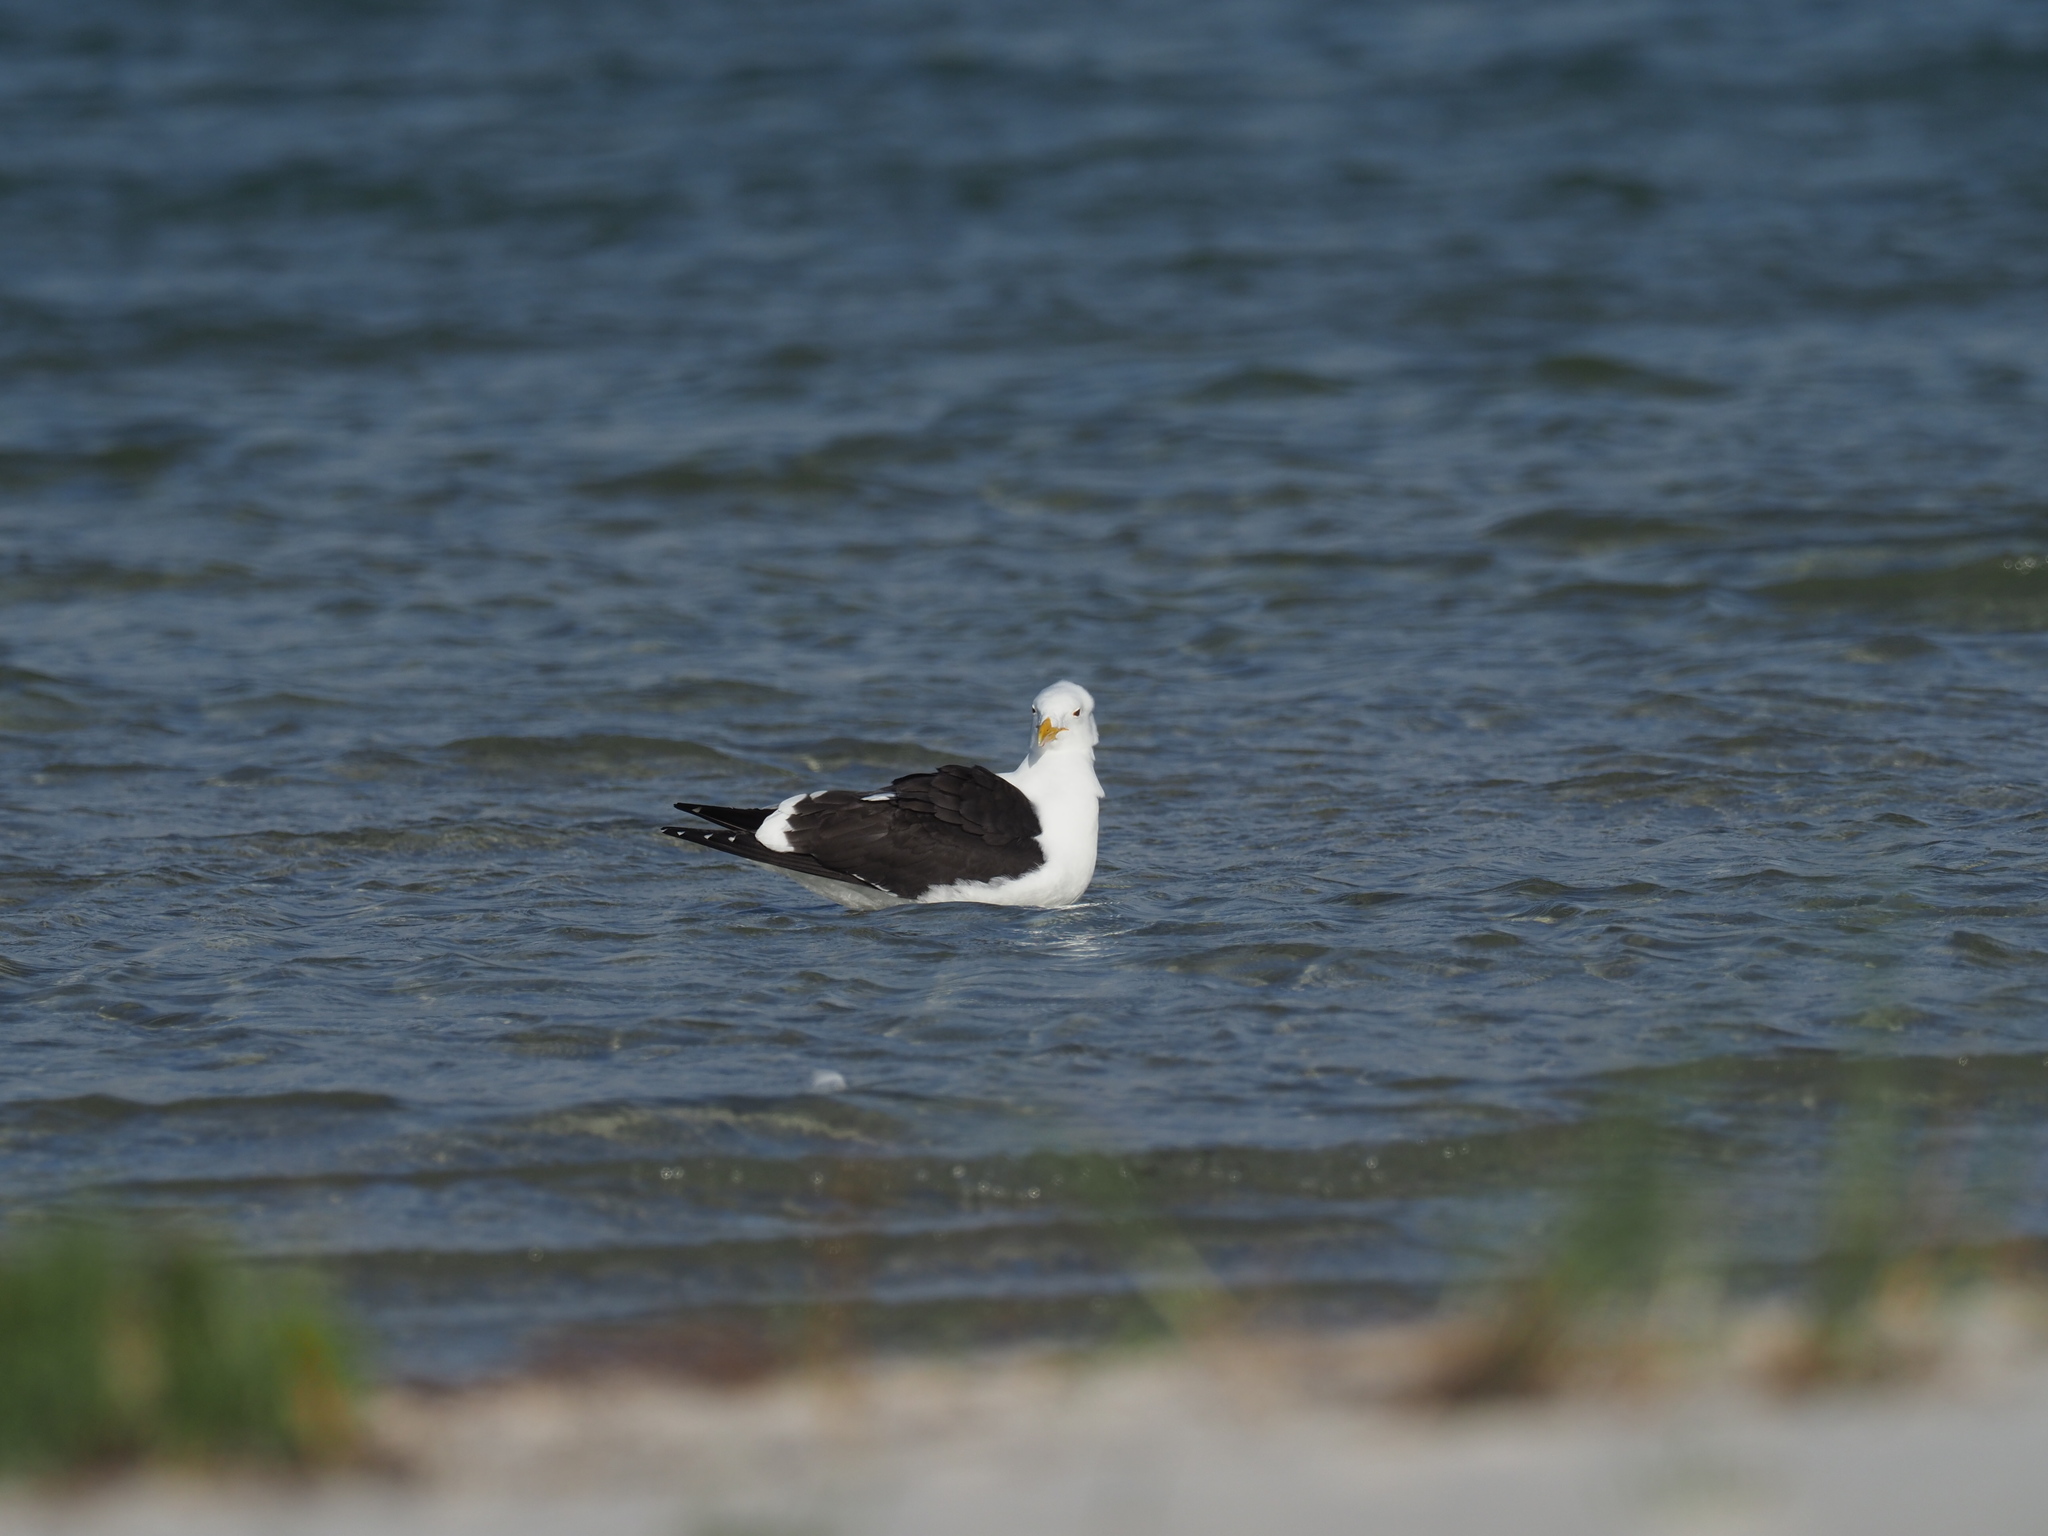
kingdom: Animalia
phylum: Chordata
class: Aves
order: Charadriiformes
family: Laridae
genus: Larus
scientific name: Larus dominicanus
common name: Kelp gull
